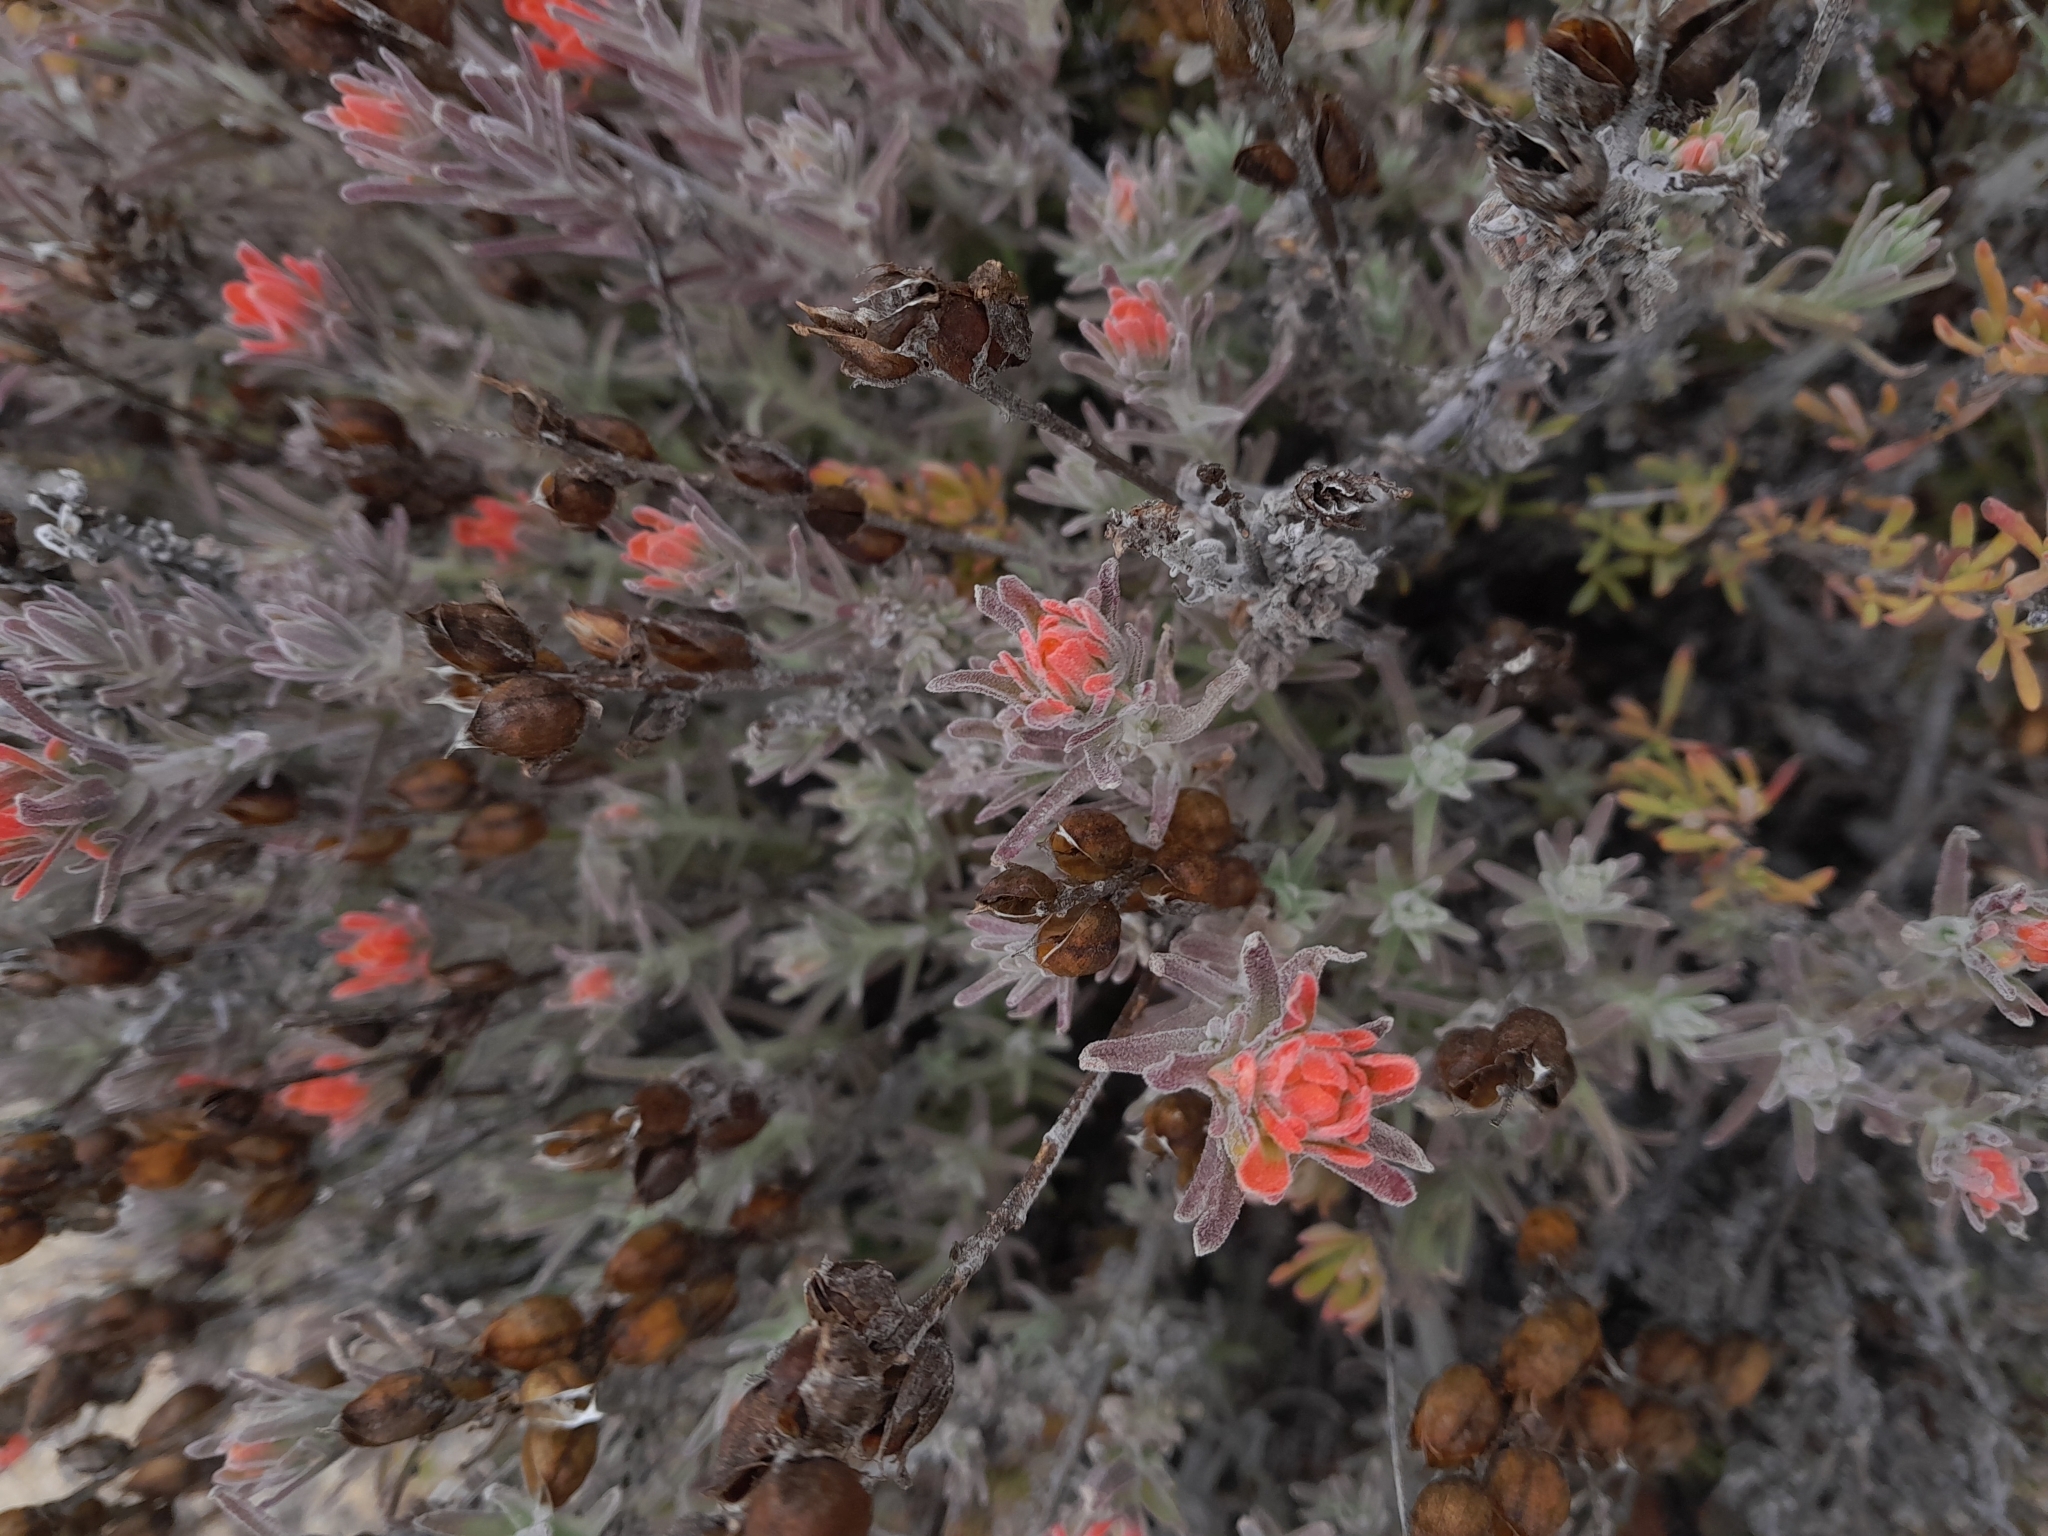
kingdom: Plantae
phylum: Tracheophyta
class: Magnoliopsida
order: Lamiales
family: Orobanchaceae
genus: Castilleja
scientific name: Castilleja foliolosa
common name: Woolly indian paintbrush
